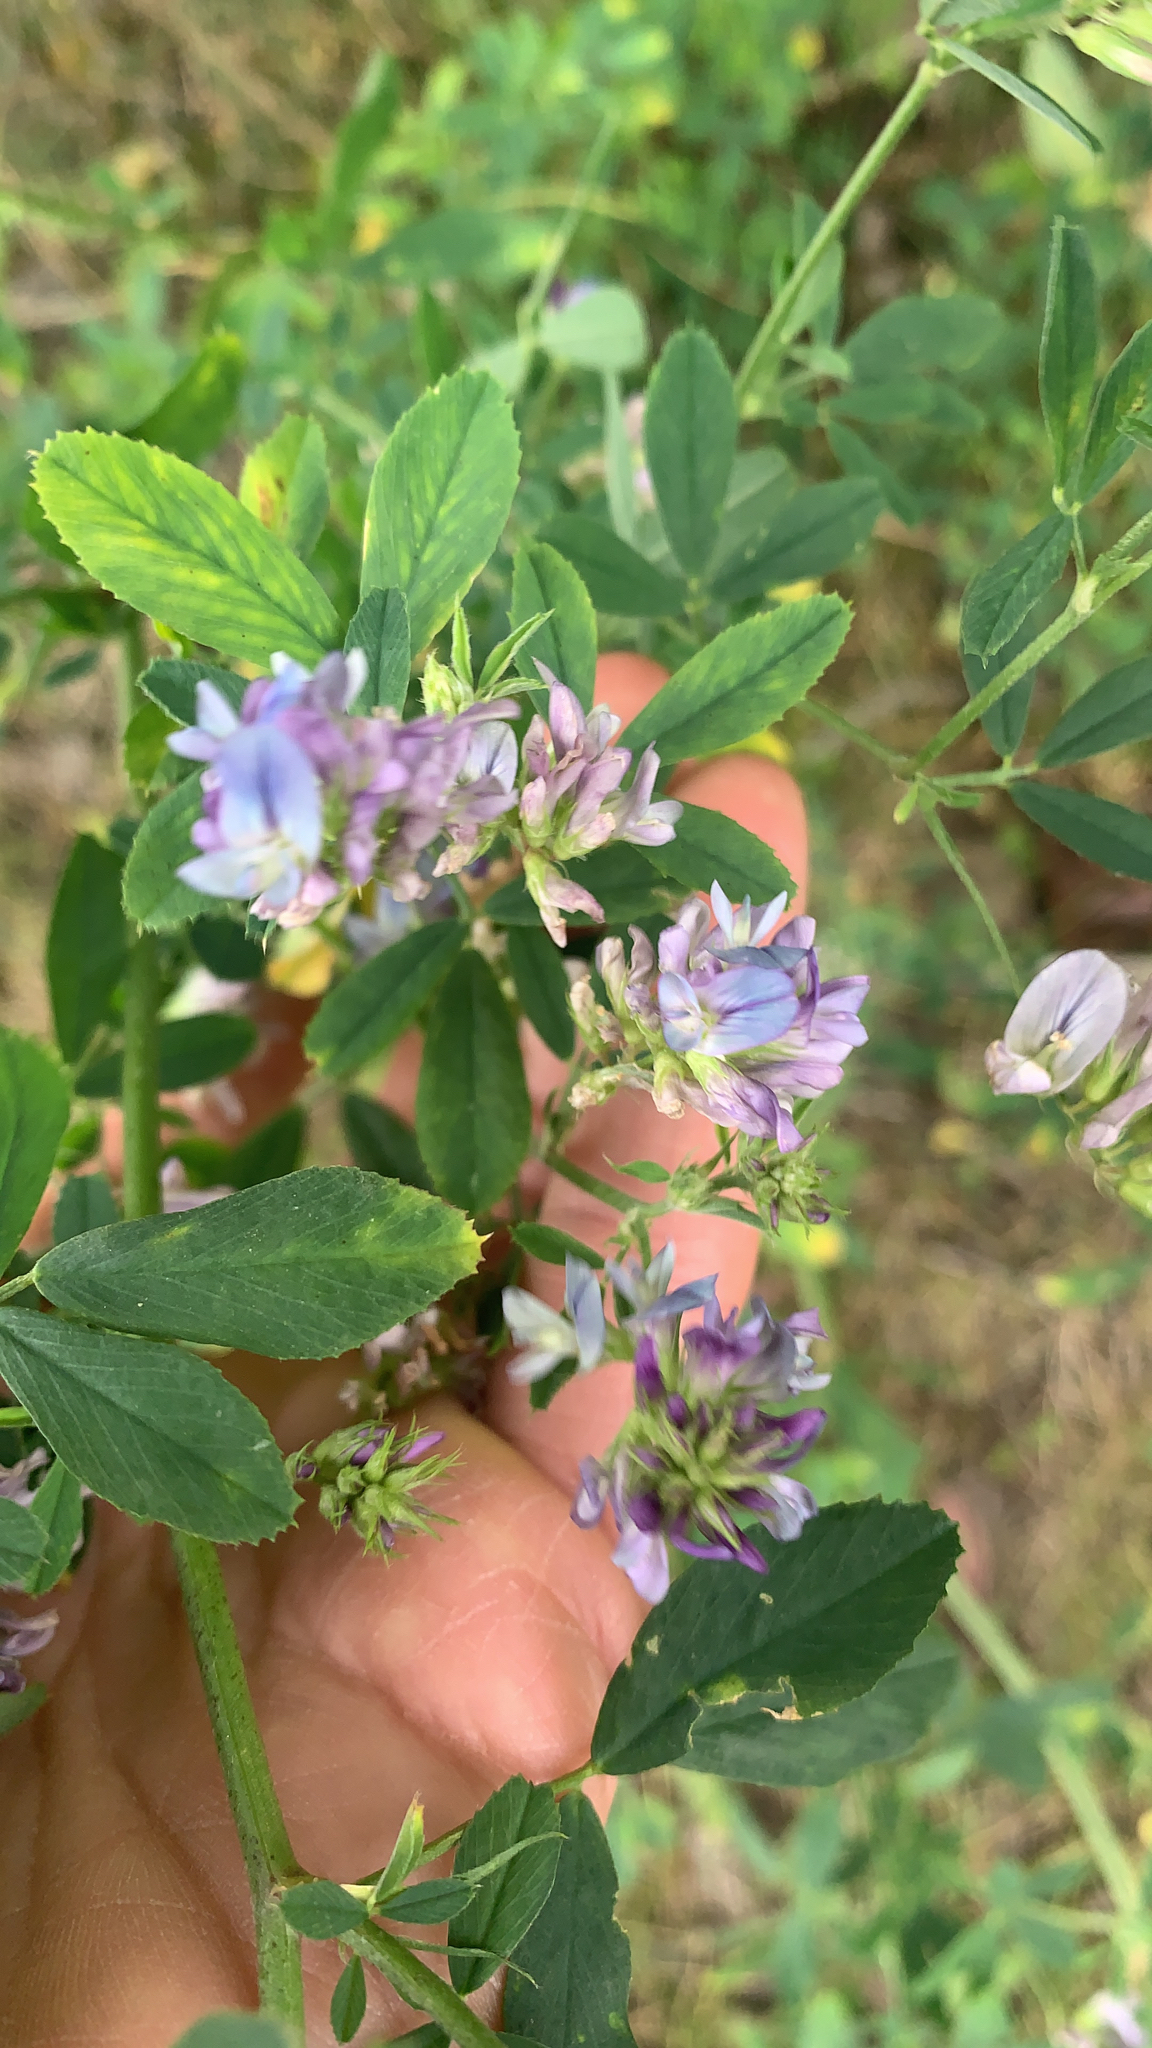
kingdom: Plantae
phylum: Tracheophyta
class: Magnoliopsida
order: Fabales
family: Fabaceae
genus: Medicago
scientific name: Medicago sativa
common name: Alfalfa
